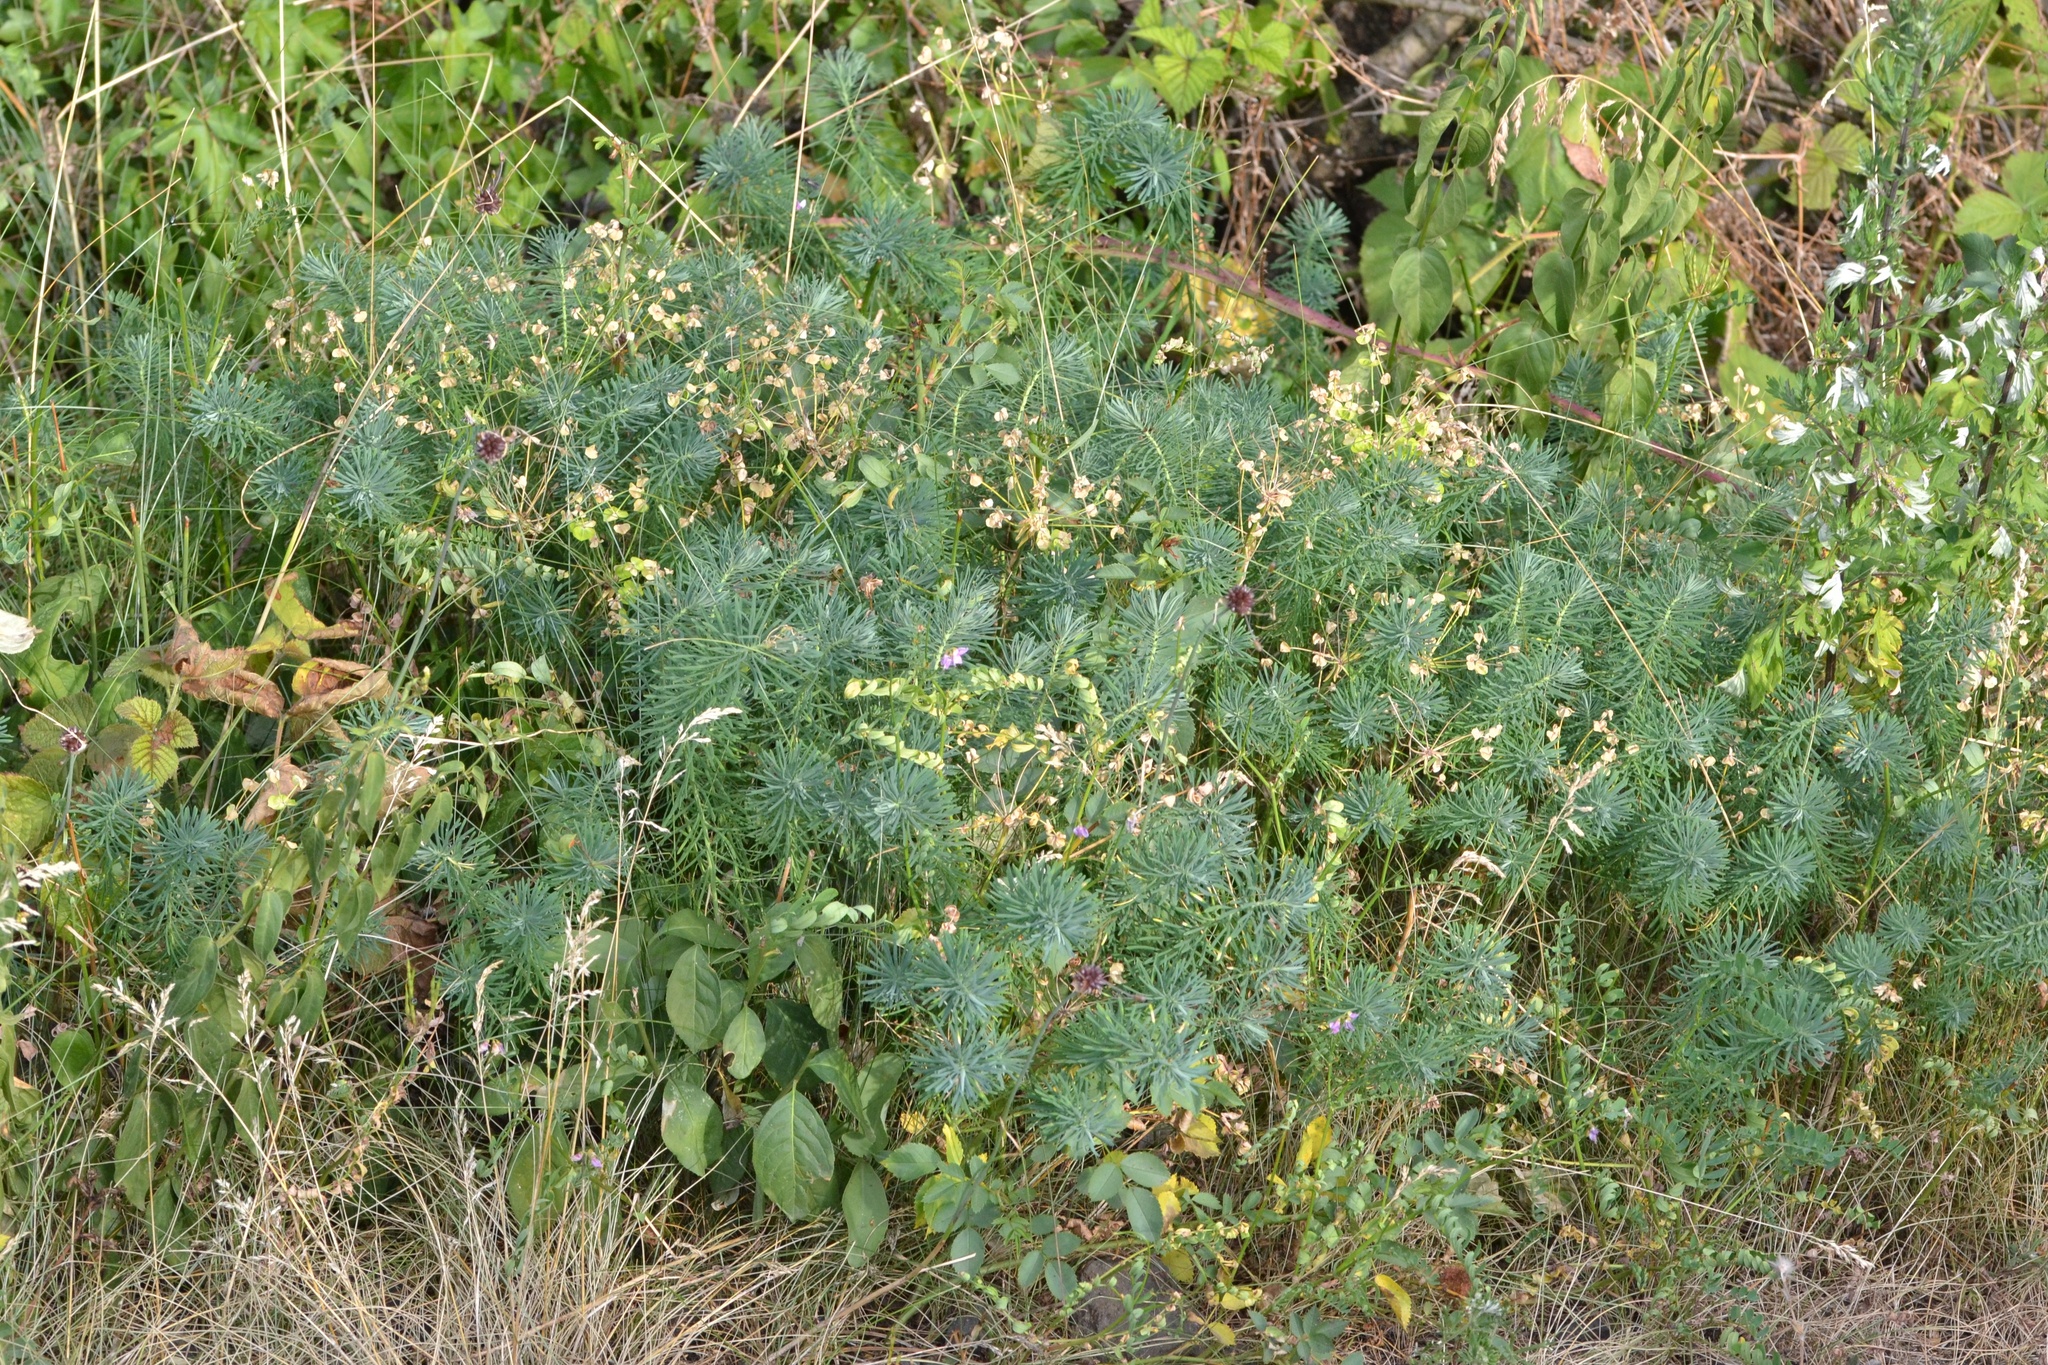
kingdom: Plantae
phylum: Tracheophyta
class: Magnoliopsida
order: Malpighiales
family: Euphorbiaceae
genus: Euphorbia
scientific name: Euphorbia cyparissias
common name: Cypress spurge
